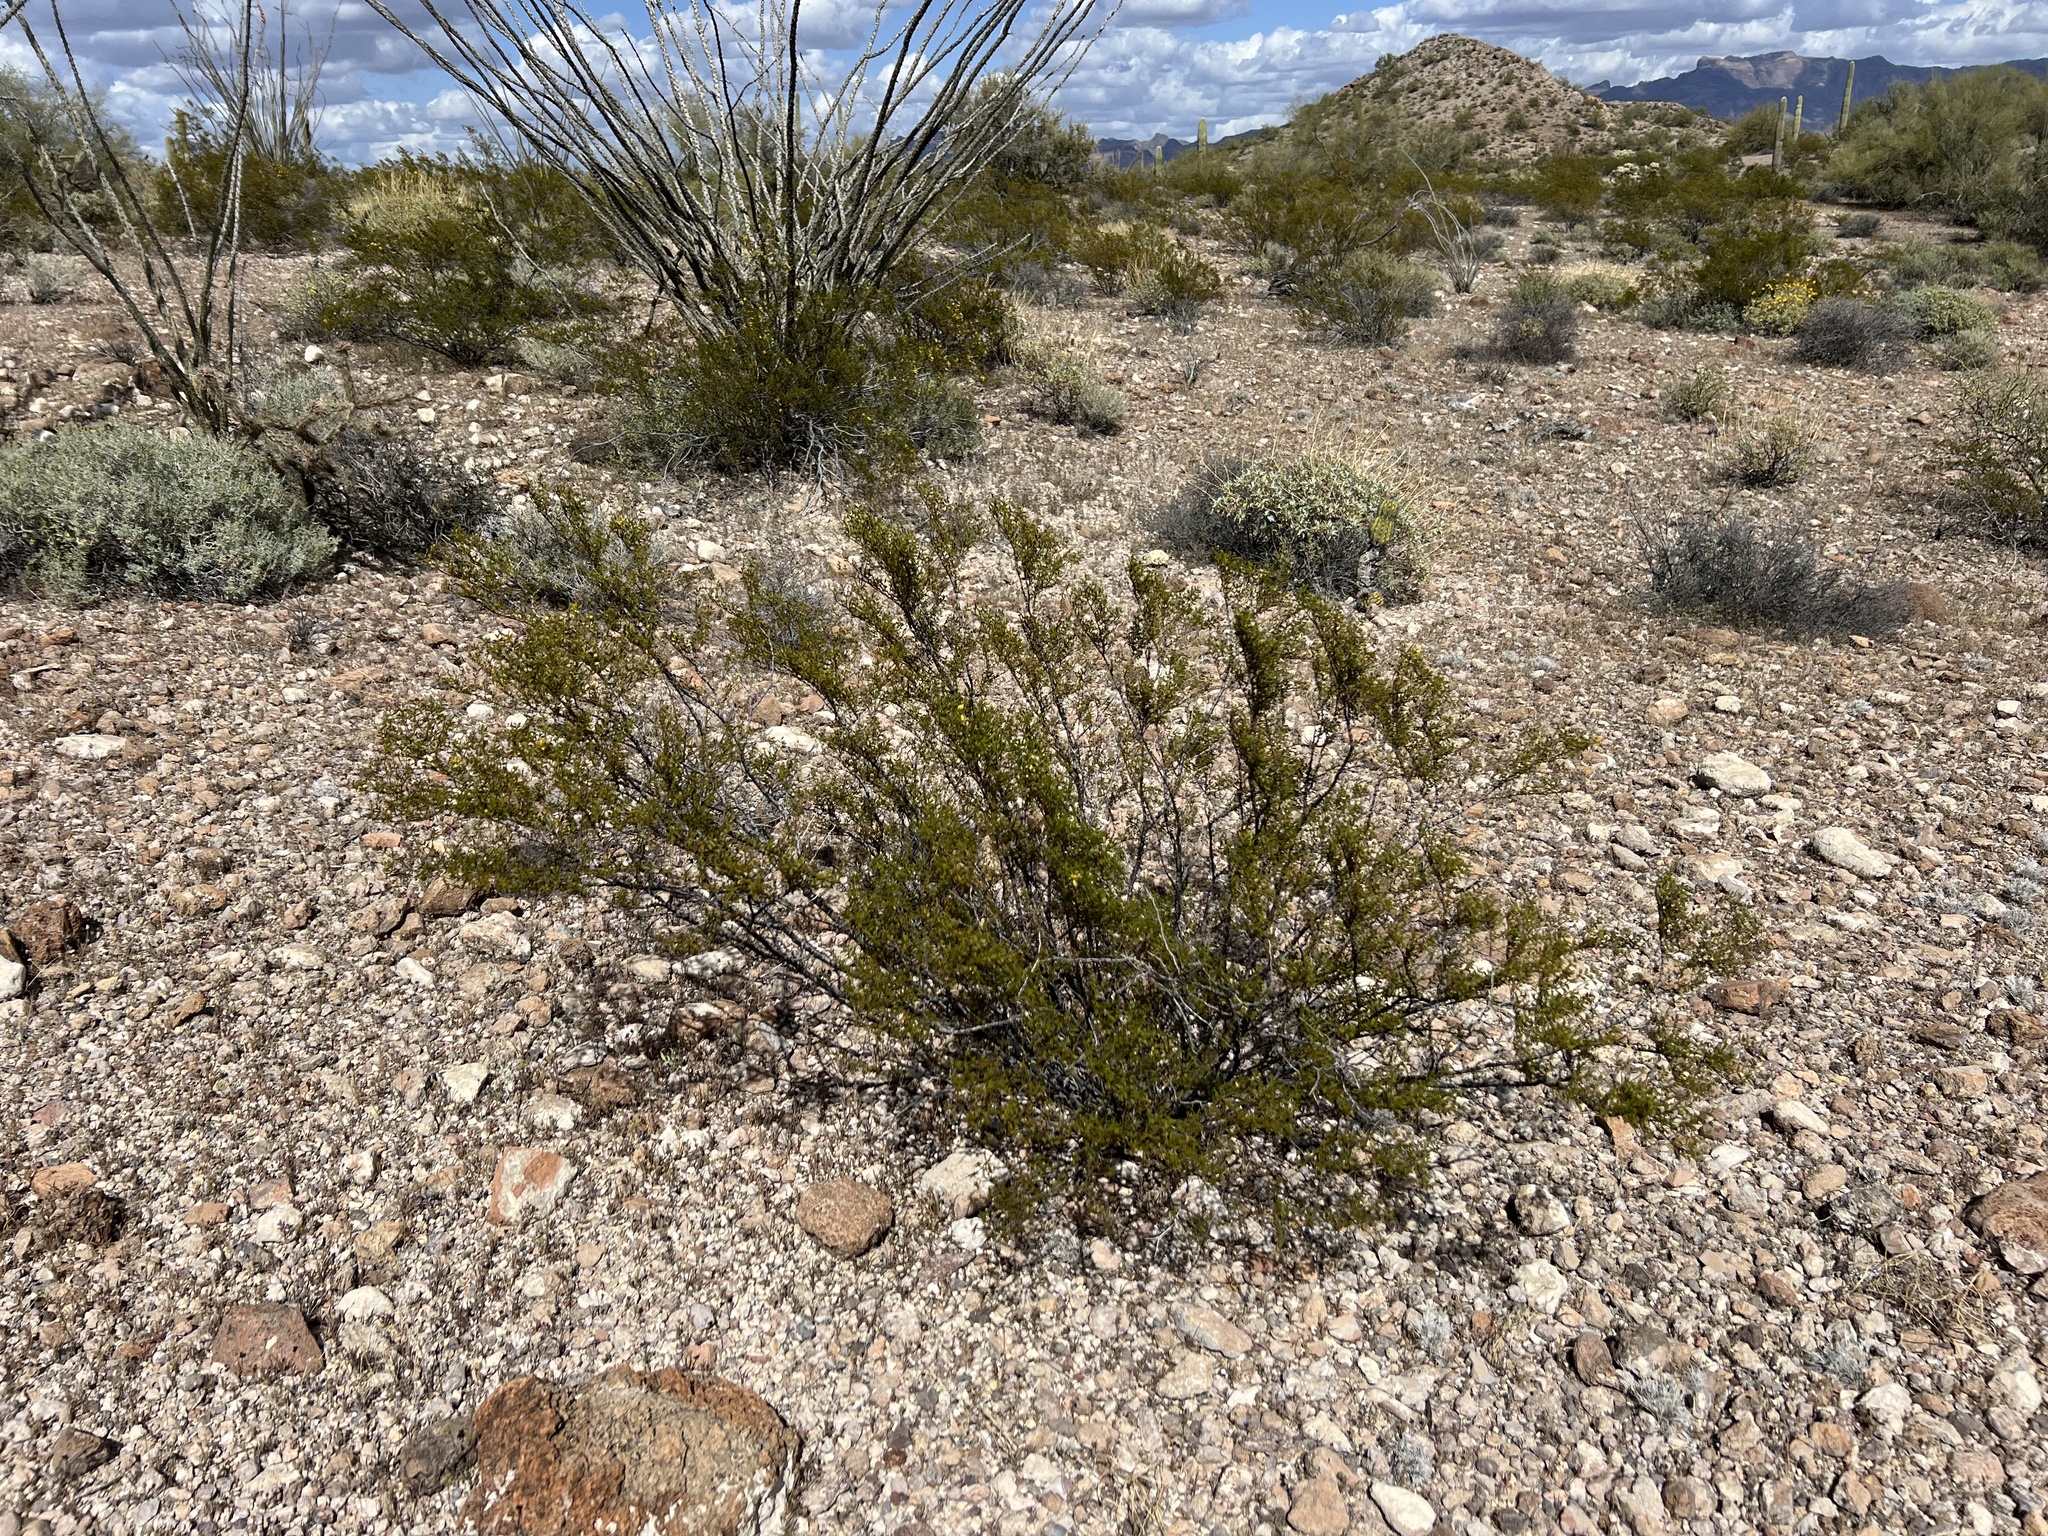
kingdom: Plantae
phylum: Tracheophyta
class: Magnoliopsida
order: Zygophyllales
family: Zygophyllaceae
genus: Larrea
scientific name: Larrea tridentata
